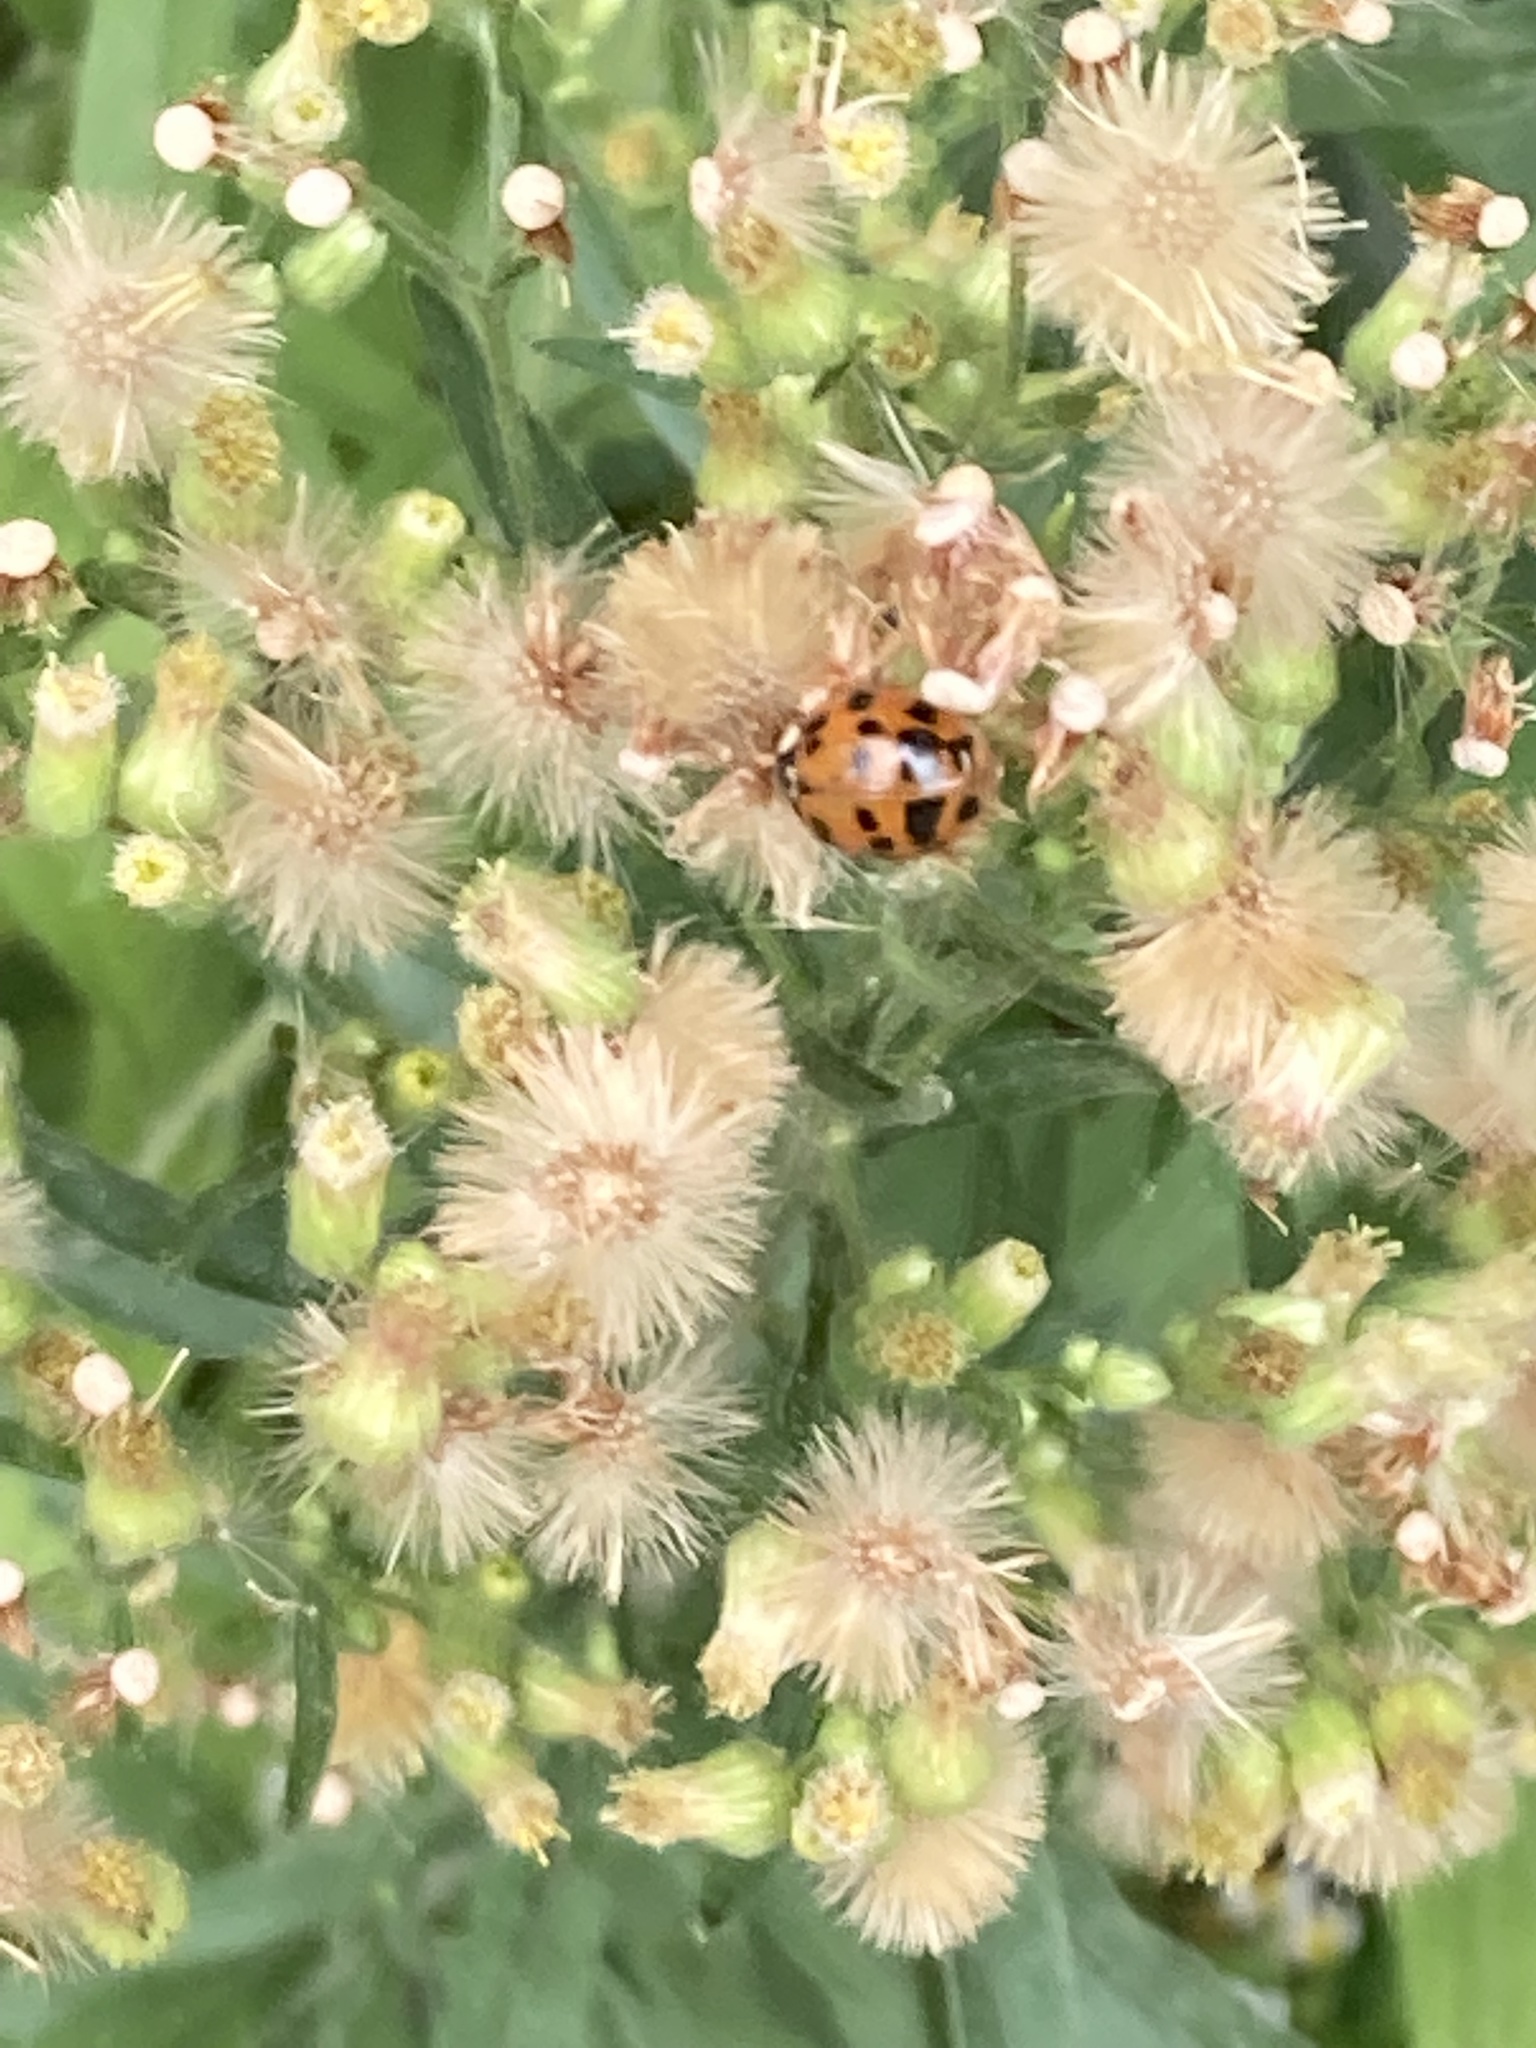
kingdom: Animalia
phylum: Arthropoda
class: Insecta
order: Coleoptera
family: Coccinellidae
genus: Harmonia
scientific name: Harmonia axyridis
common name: Harlequin ladybird
